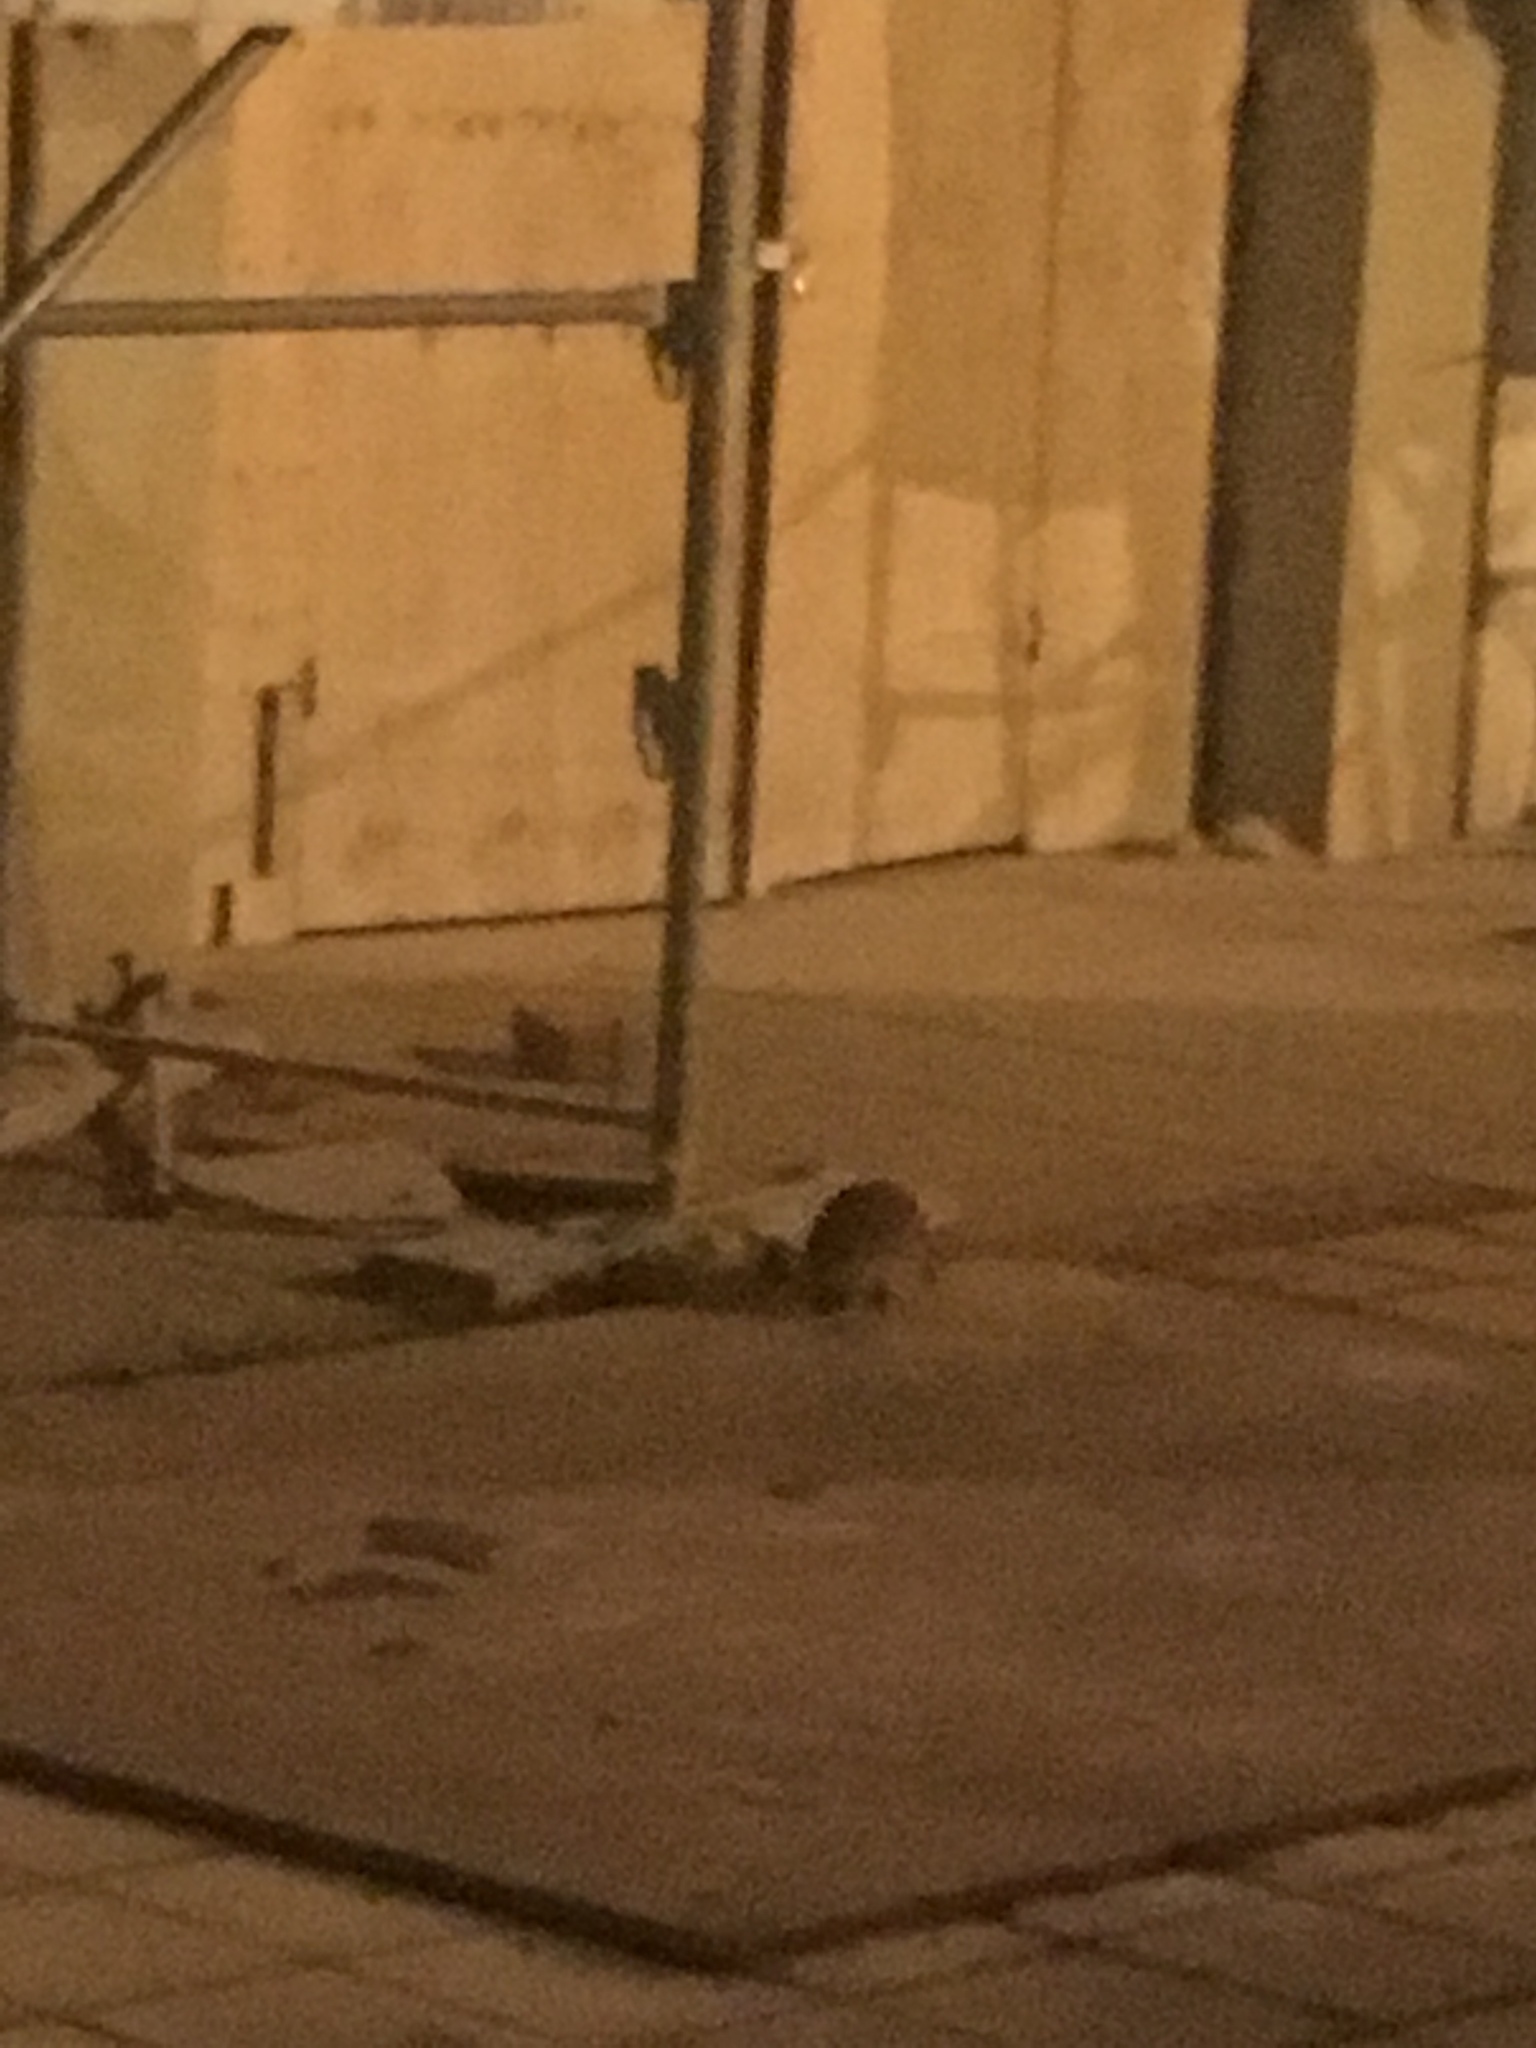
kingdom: Animalia
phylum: Chordata
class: Mammalia
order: Erinaceomorpha
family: Erinaceidae
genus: Erinaceus
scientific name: Erinaceus europaeus
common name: West european hedgehog
